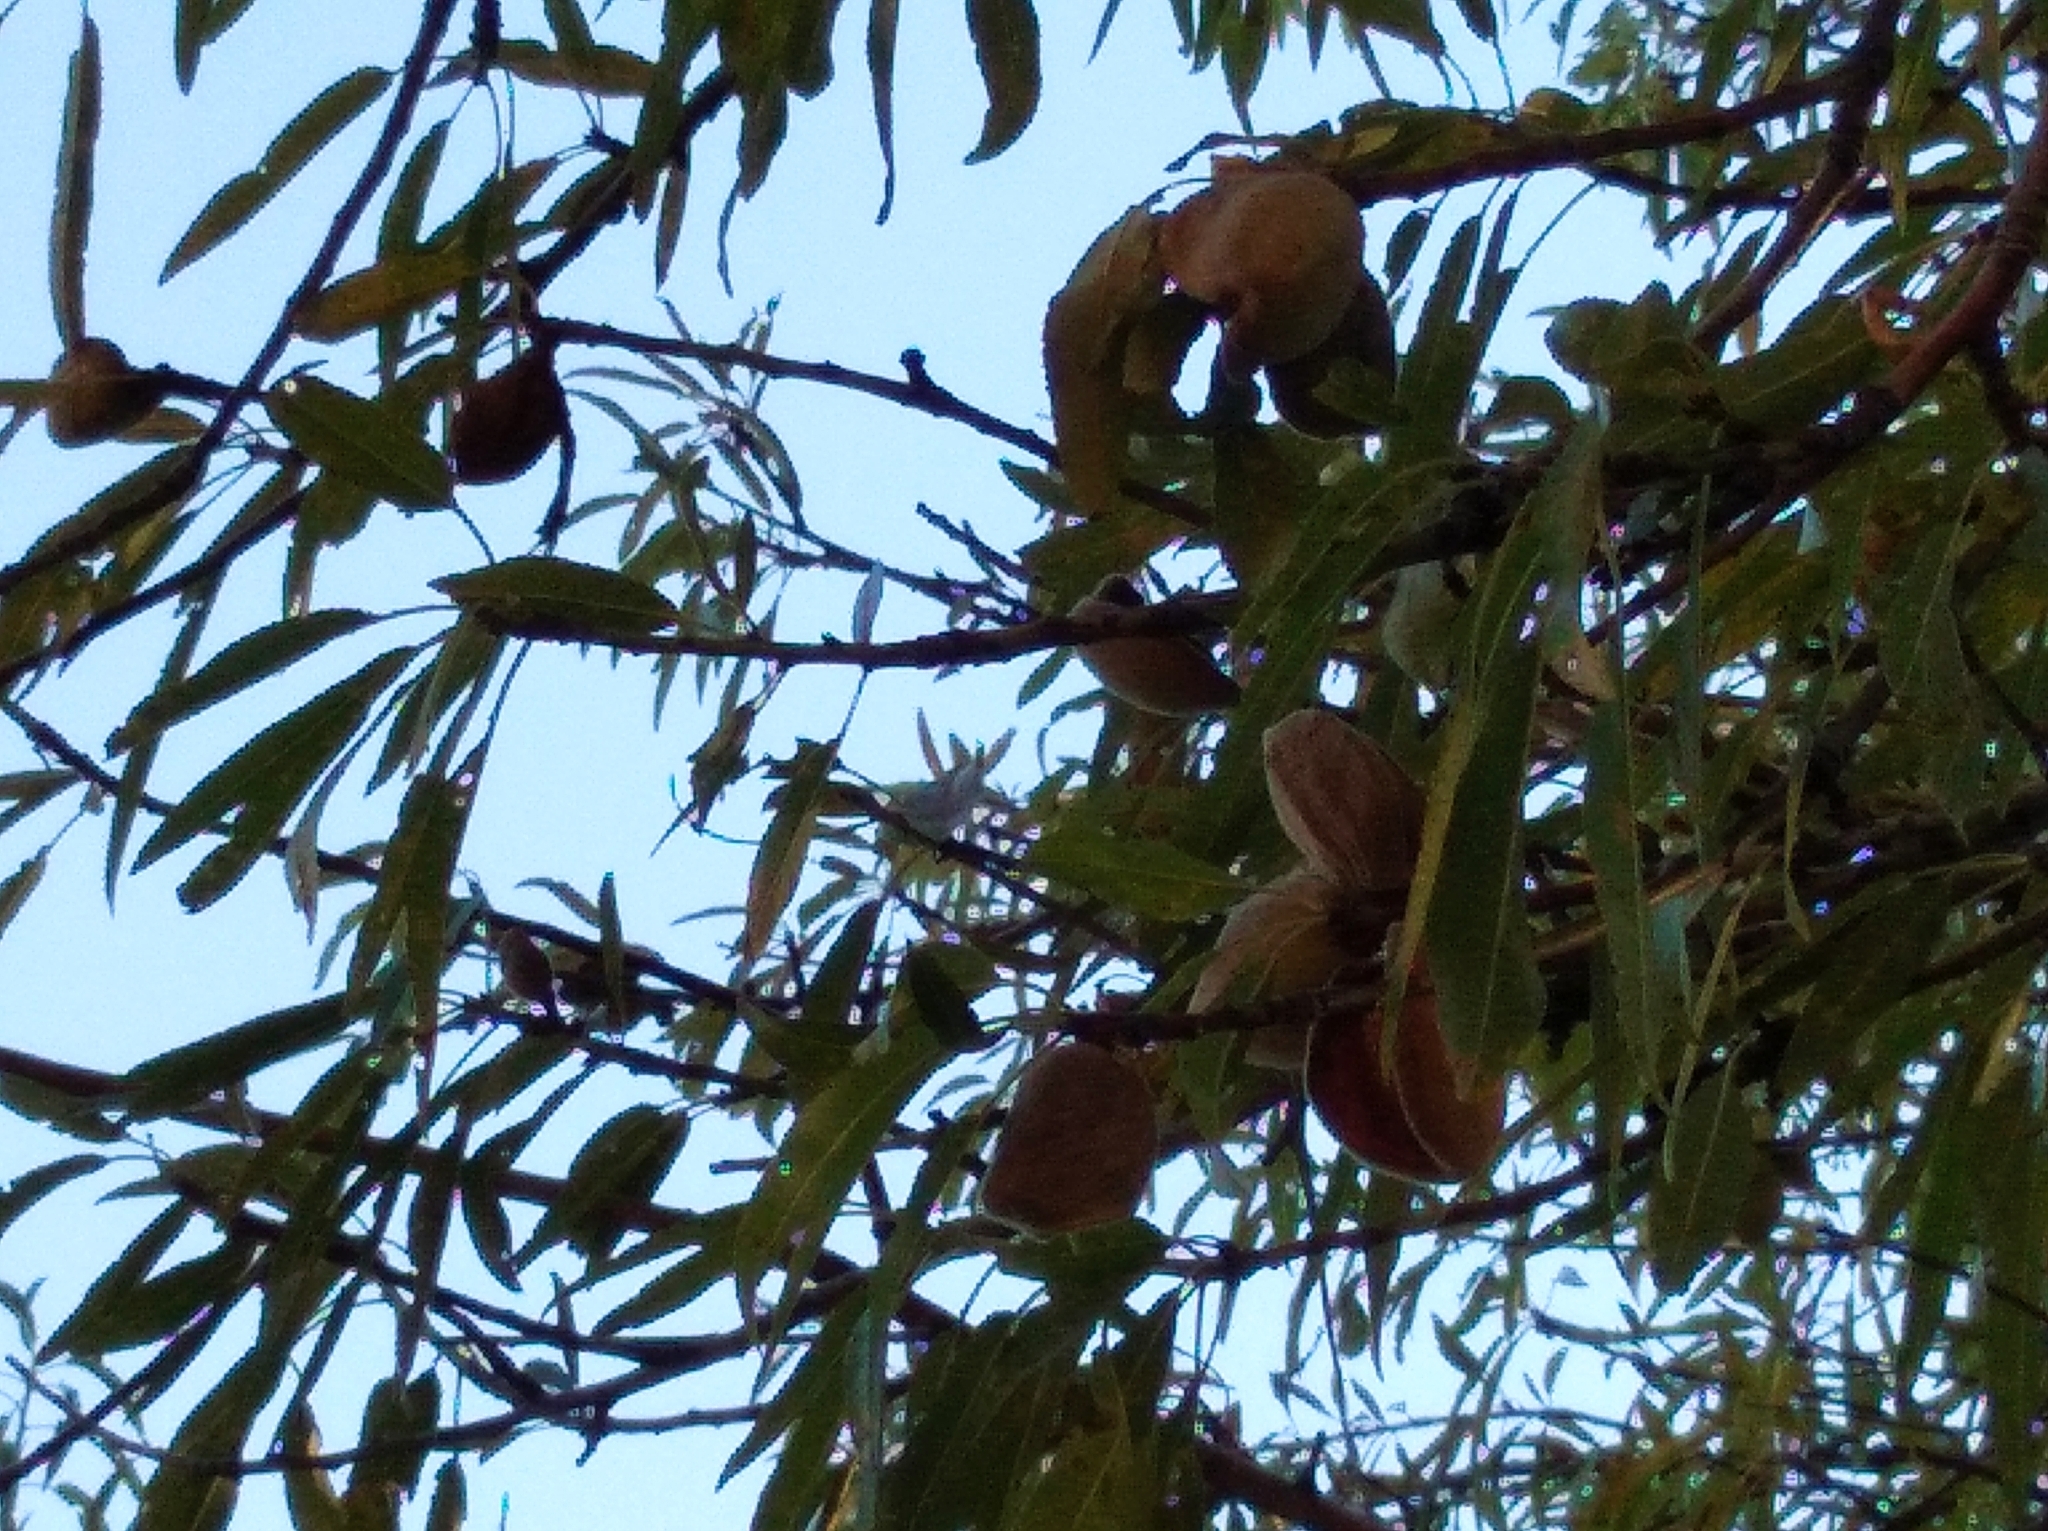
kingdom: Plantae
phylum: Tracheophyta
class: Magnoliopsida
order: Rosales
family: Rosaceae
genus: Prunus
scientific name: Prunus amygdalus
